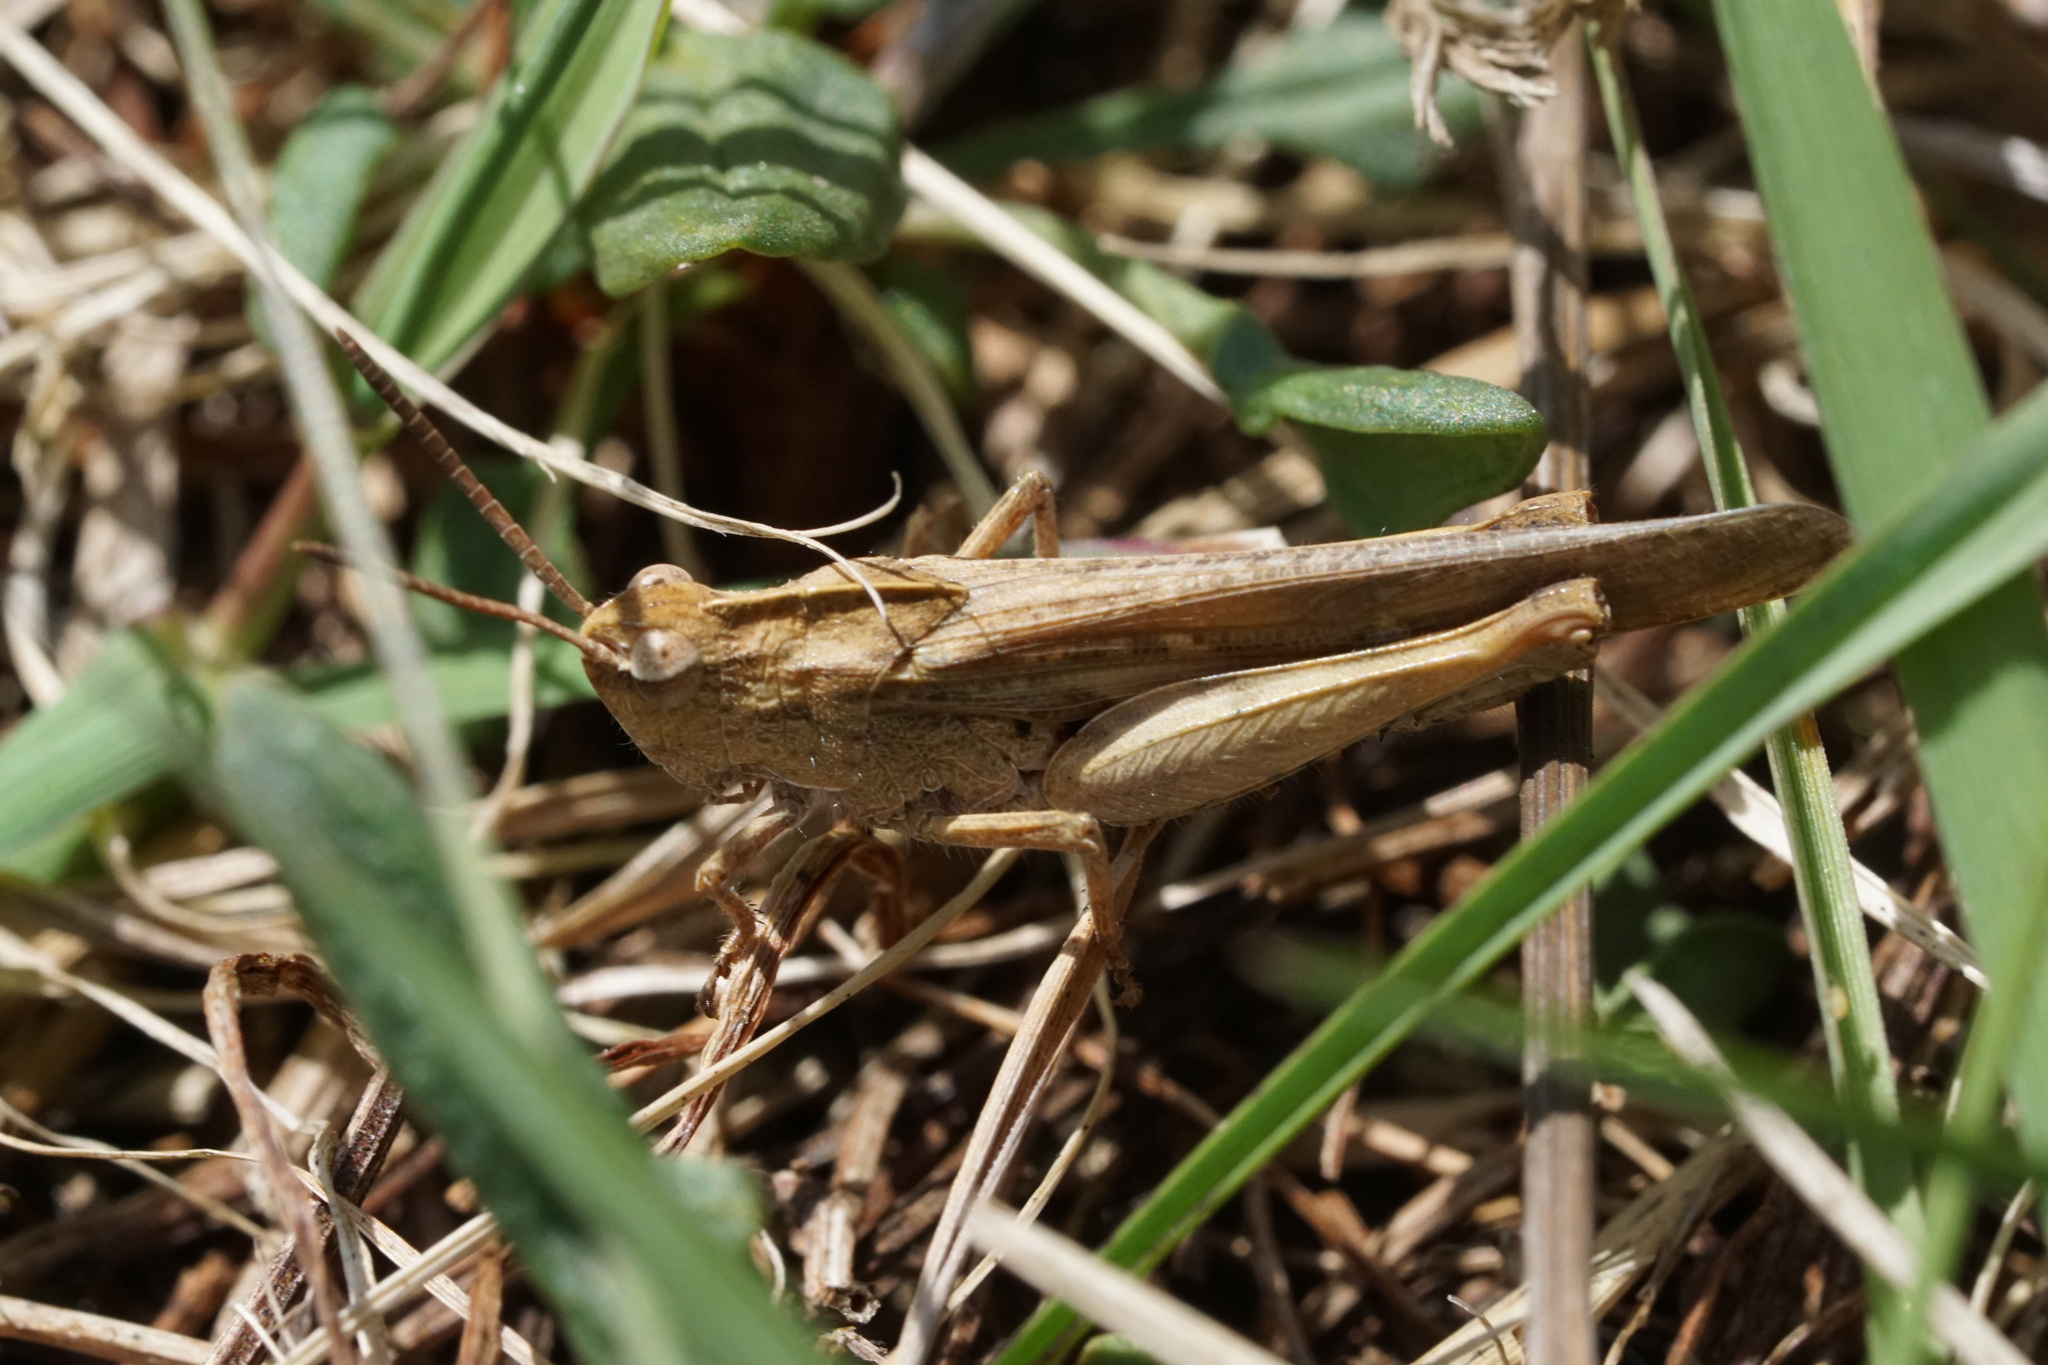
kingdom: Animalia
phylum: Arthropoda
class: Insecta
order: Orthoptera
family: Acrididae
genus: Chortophaga
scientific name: Chortophaga viridifasciata
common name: Green-striped grasshopper
